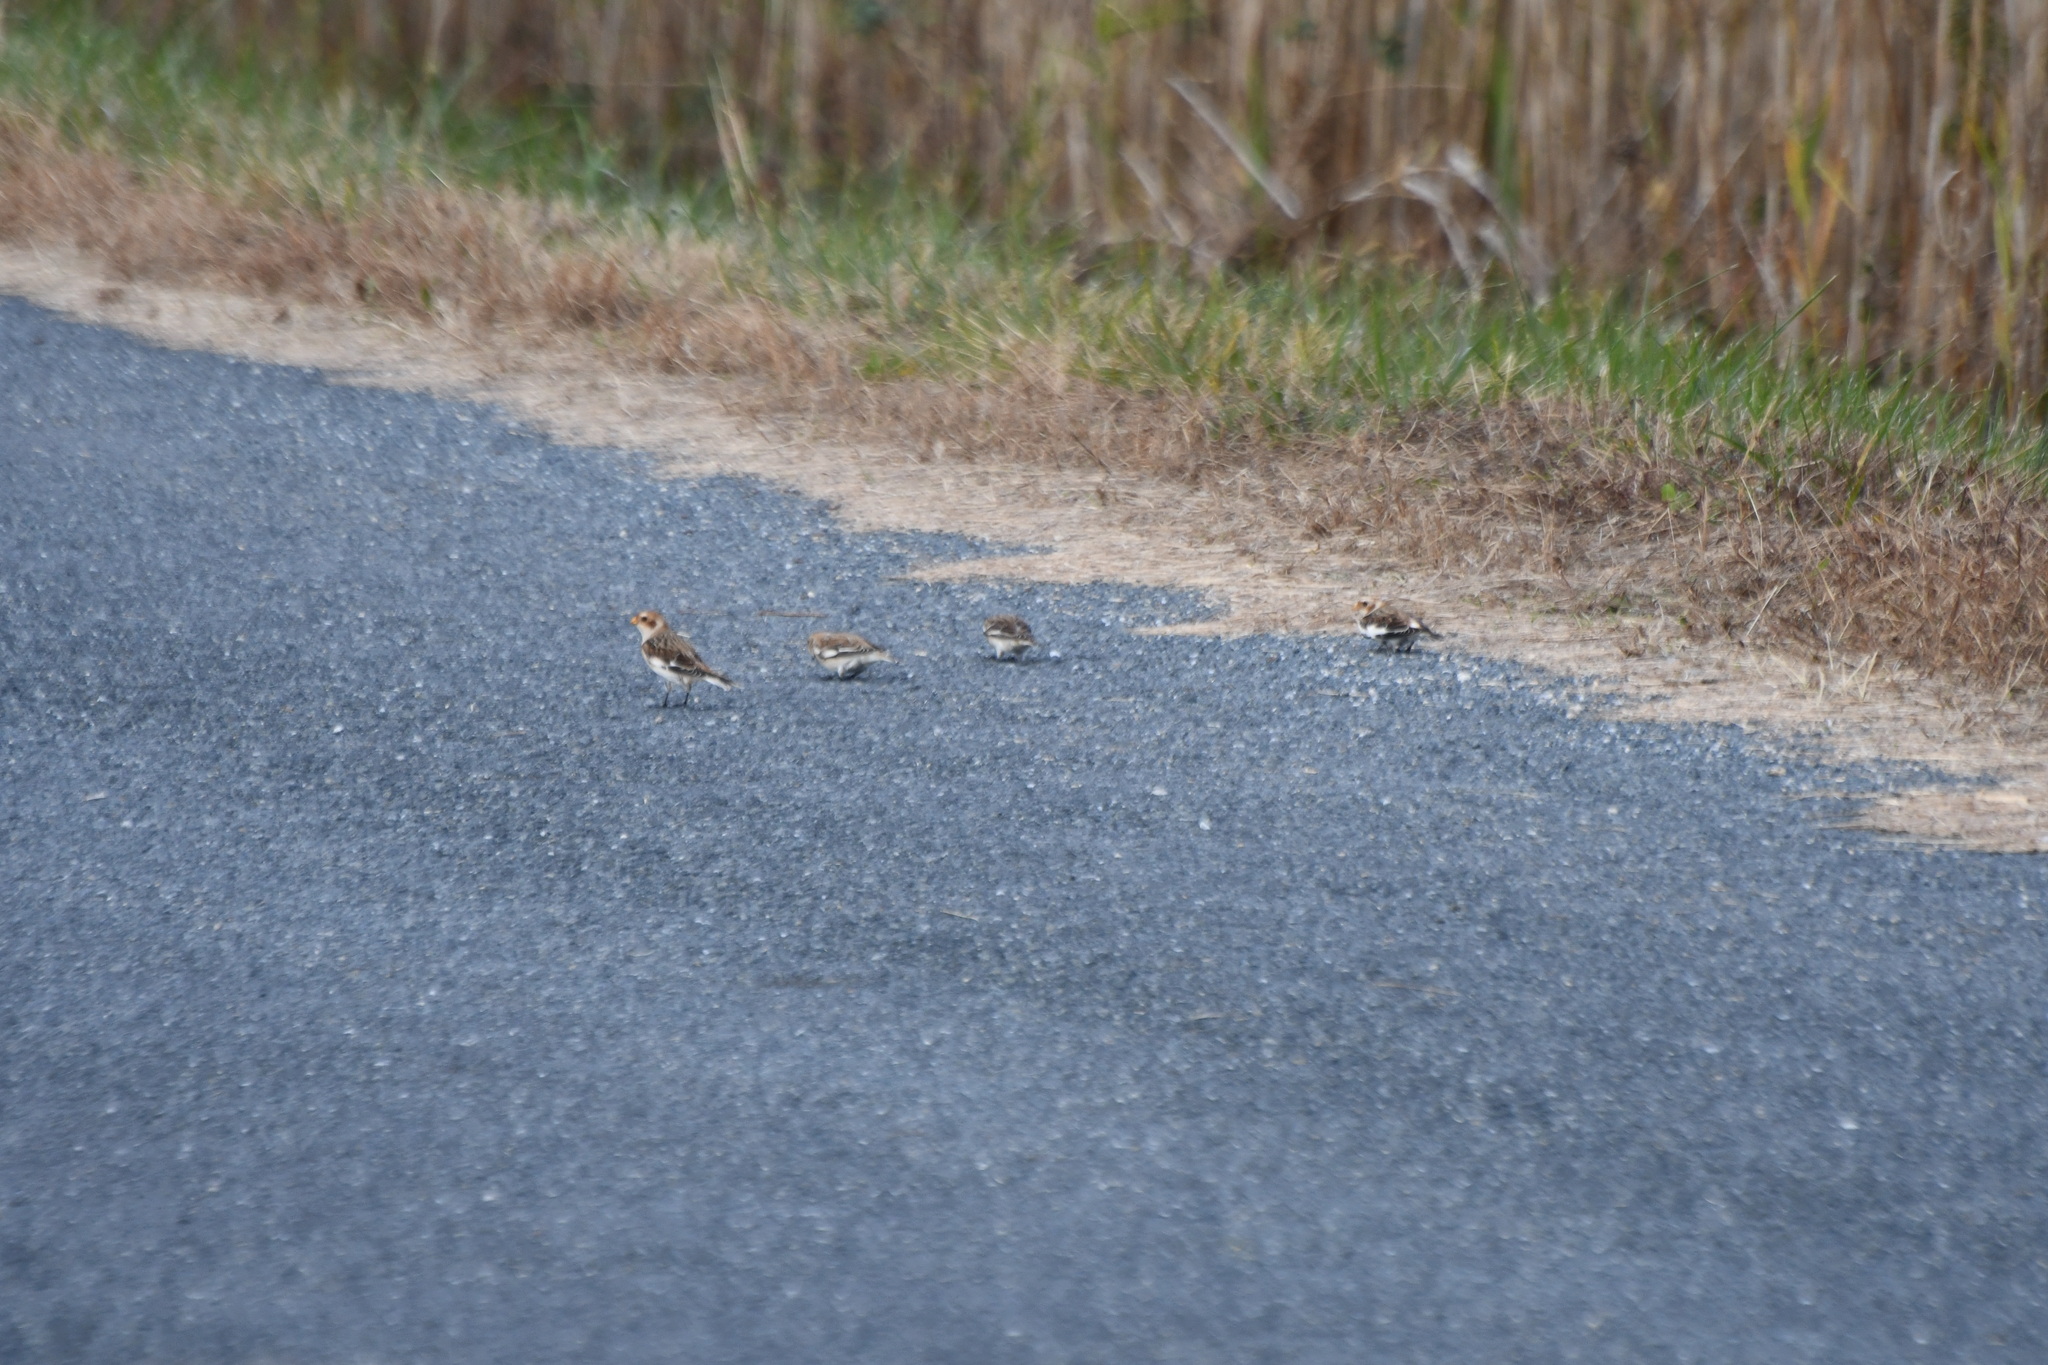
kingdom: Animalia
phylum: Chordata
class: Aves
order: Passeriformes
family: Calcariidae
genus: Plectrophenax
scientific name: Plectrophenax nivalis
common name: Snow bunting
